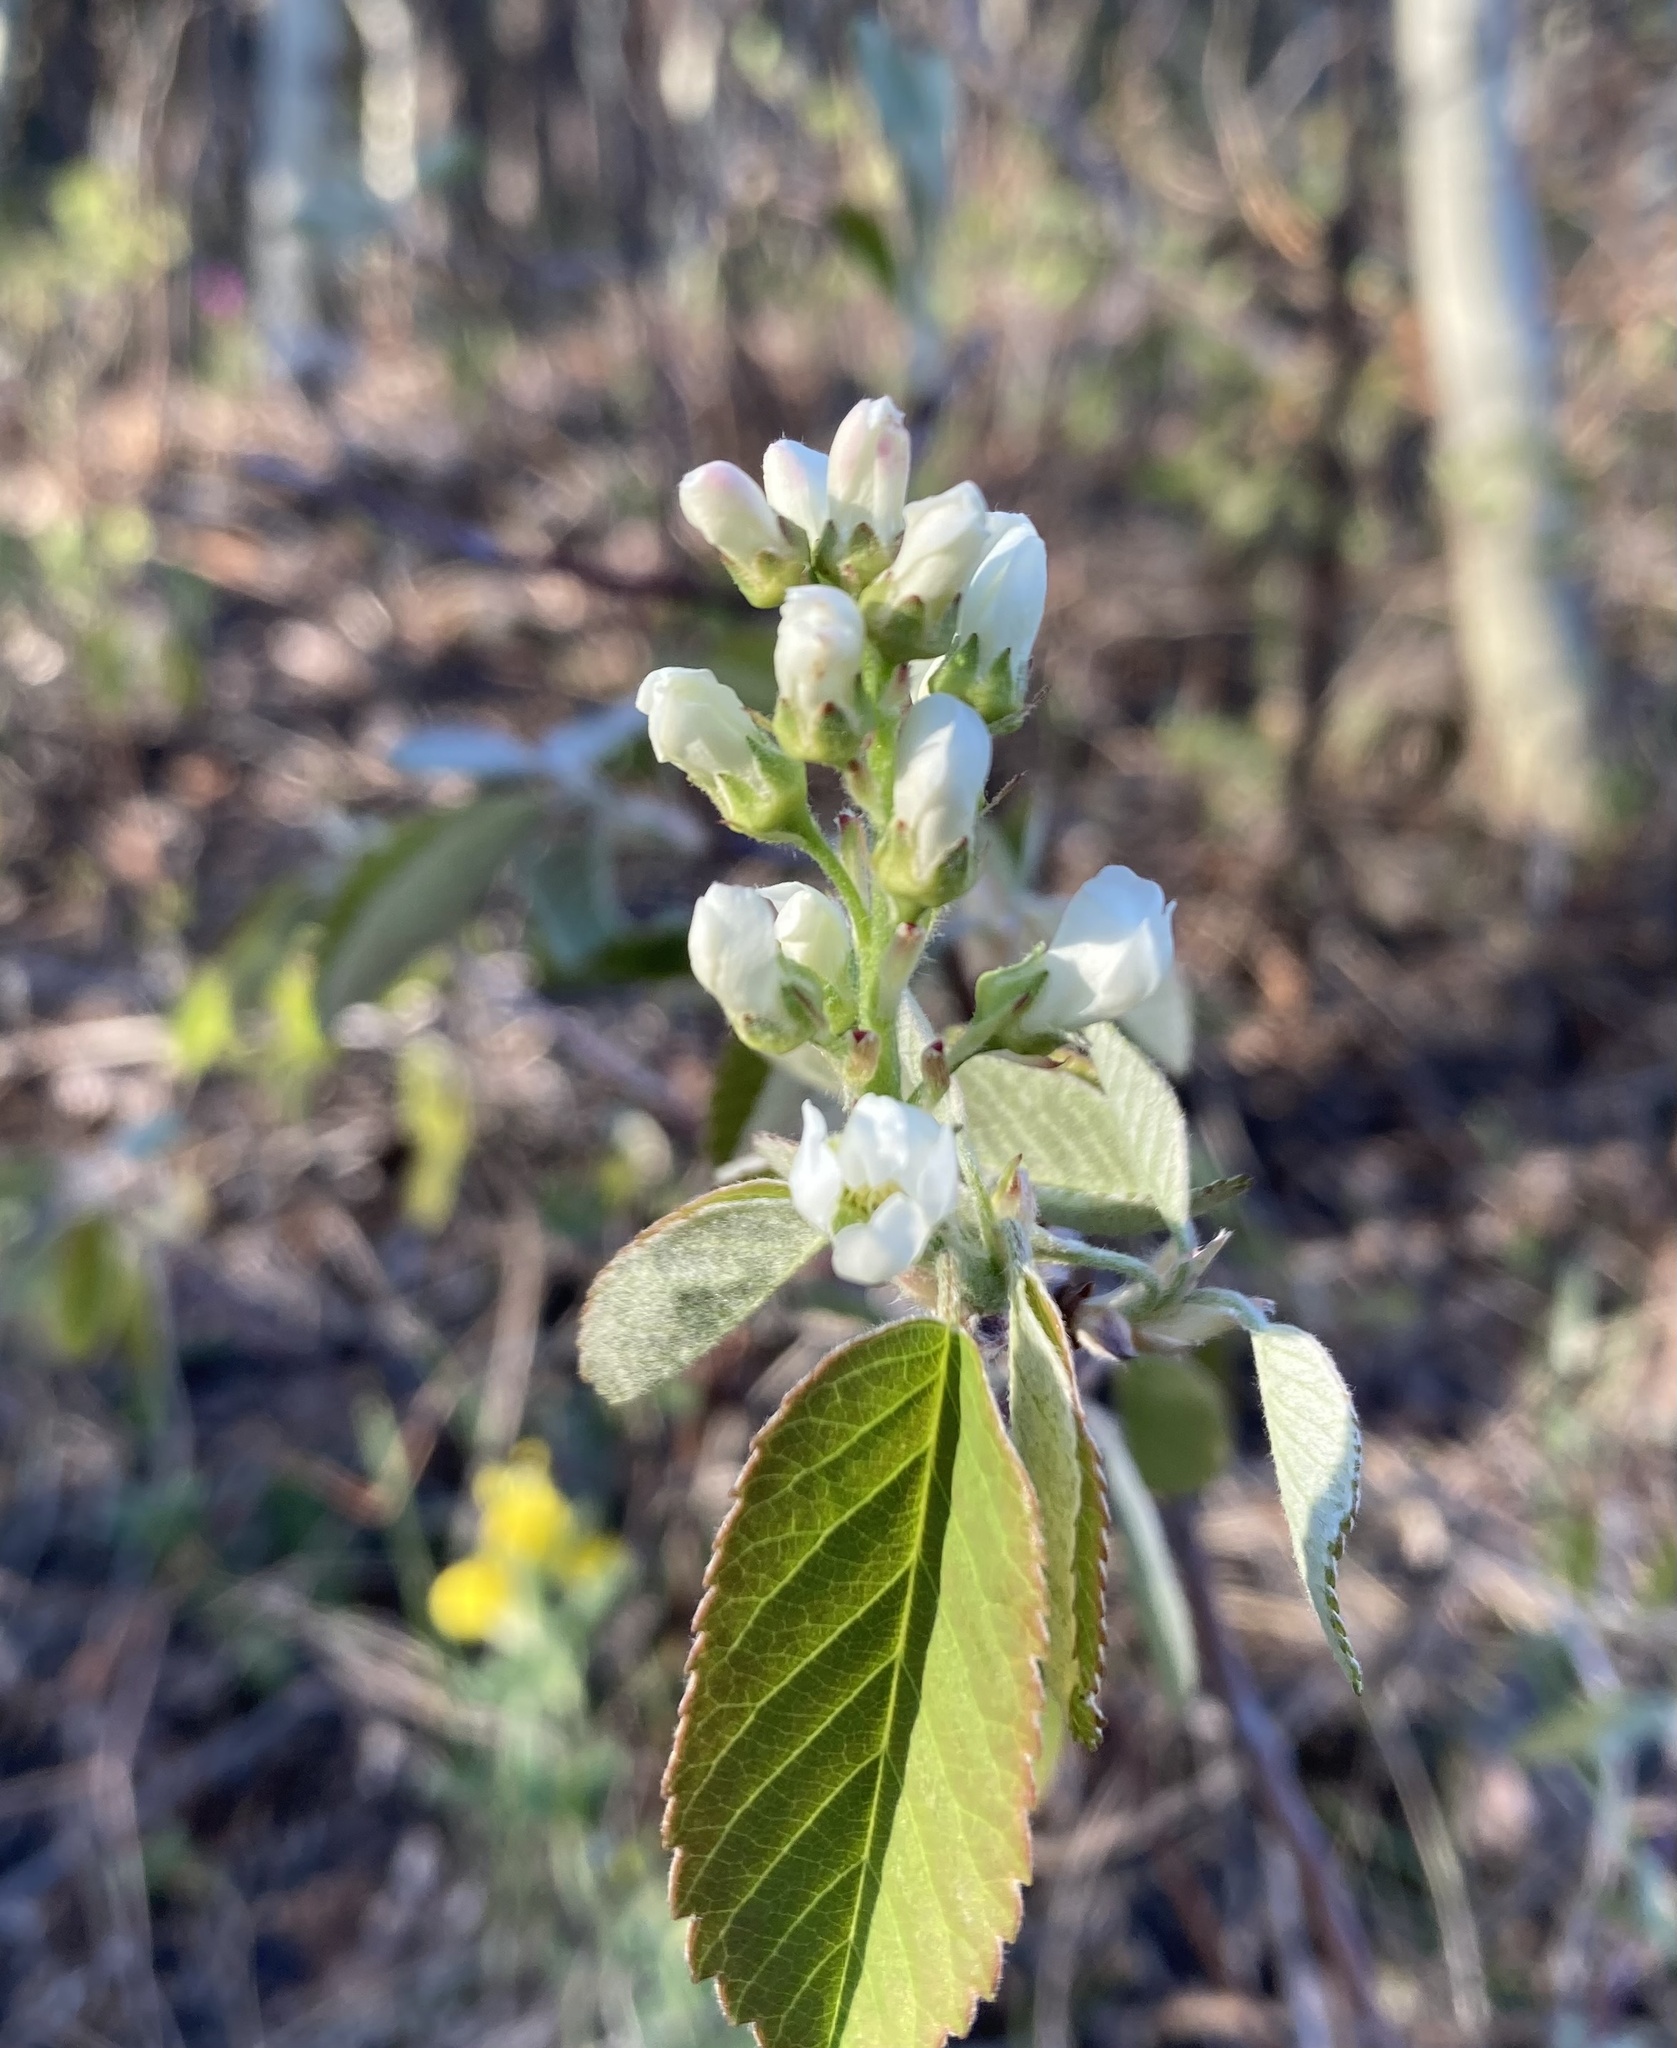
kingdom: Plantae
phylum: Tracheophyta
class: Magnoliopsida
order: Rosales
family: Rosaceae
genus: Amelanchier
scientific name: Amelanchier alnifolia
